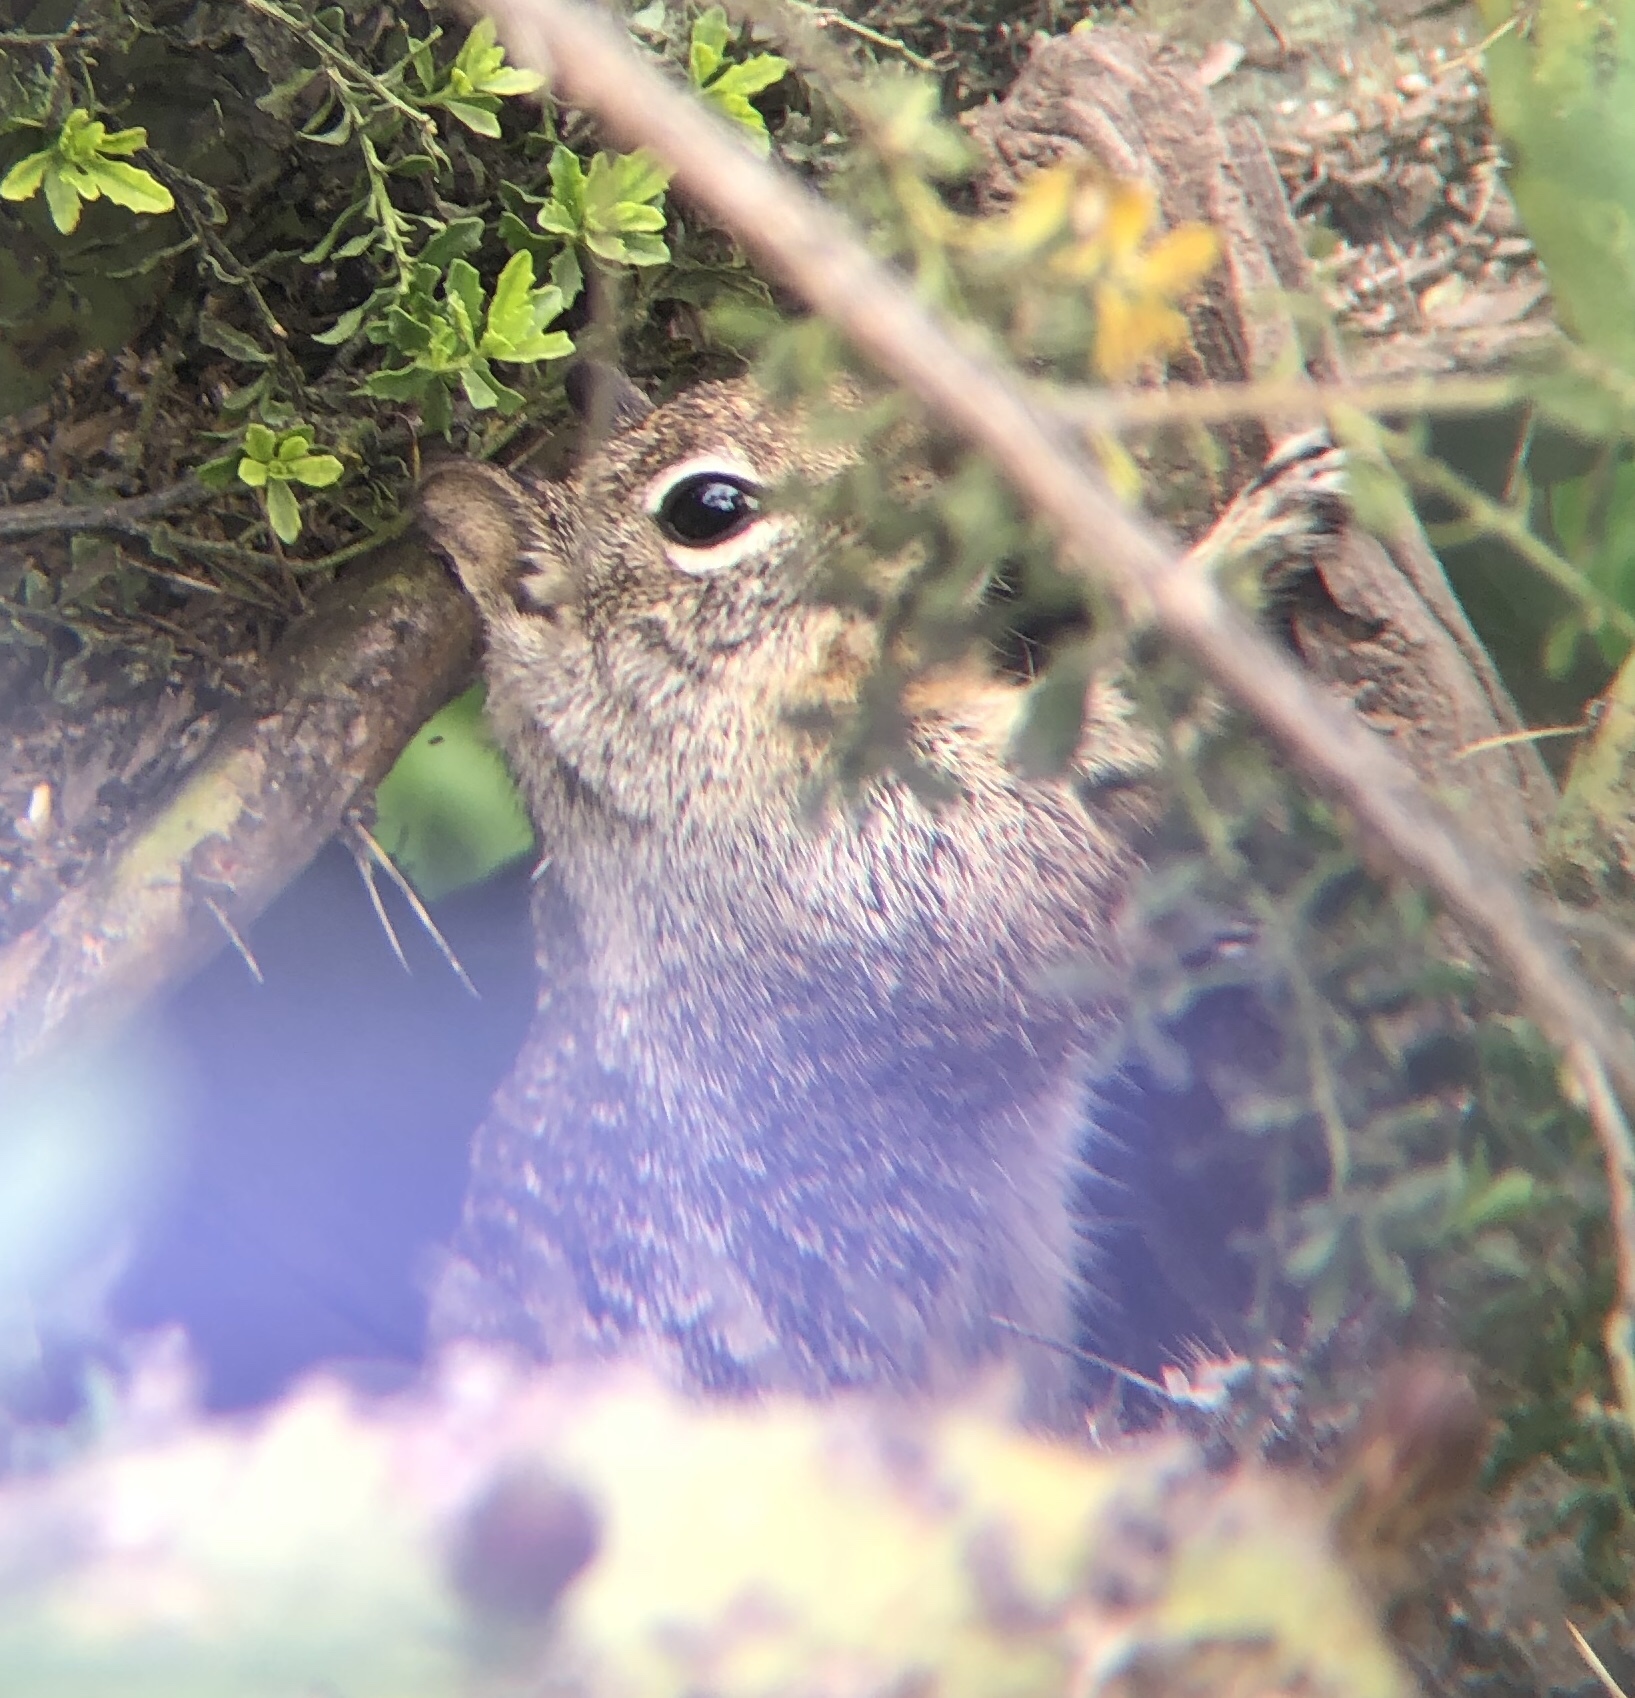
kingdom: Animalia
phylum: Chordata
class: Mammalia
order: Rodentia
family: Sciuridae
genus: Otospermophilus
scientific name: Otospermophilus beecheyi
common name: California ground squirrel
